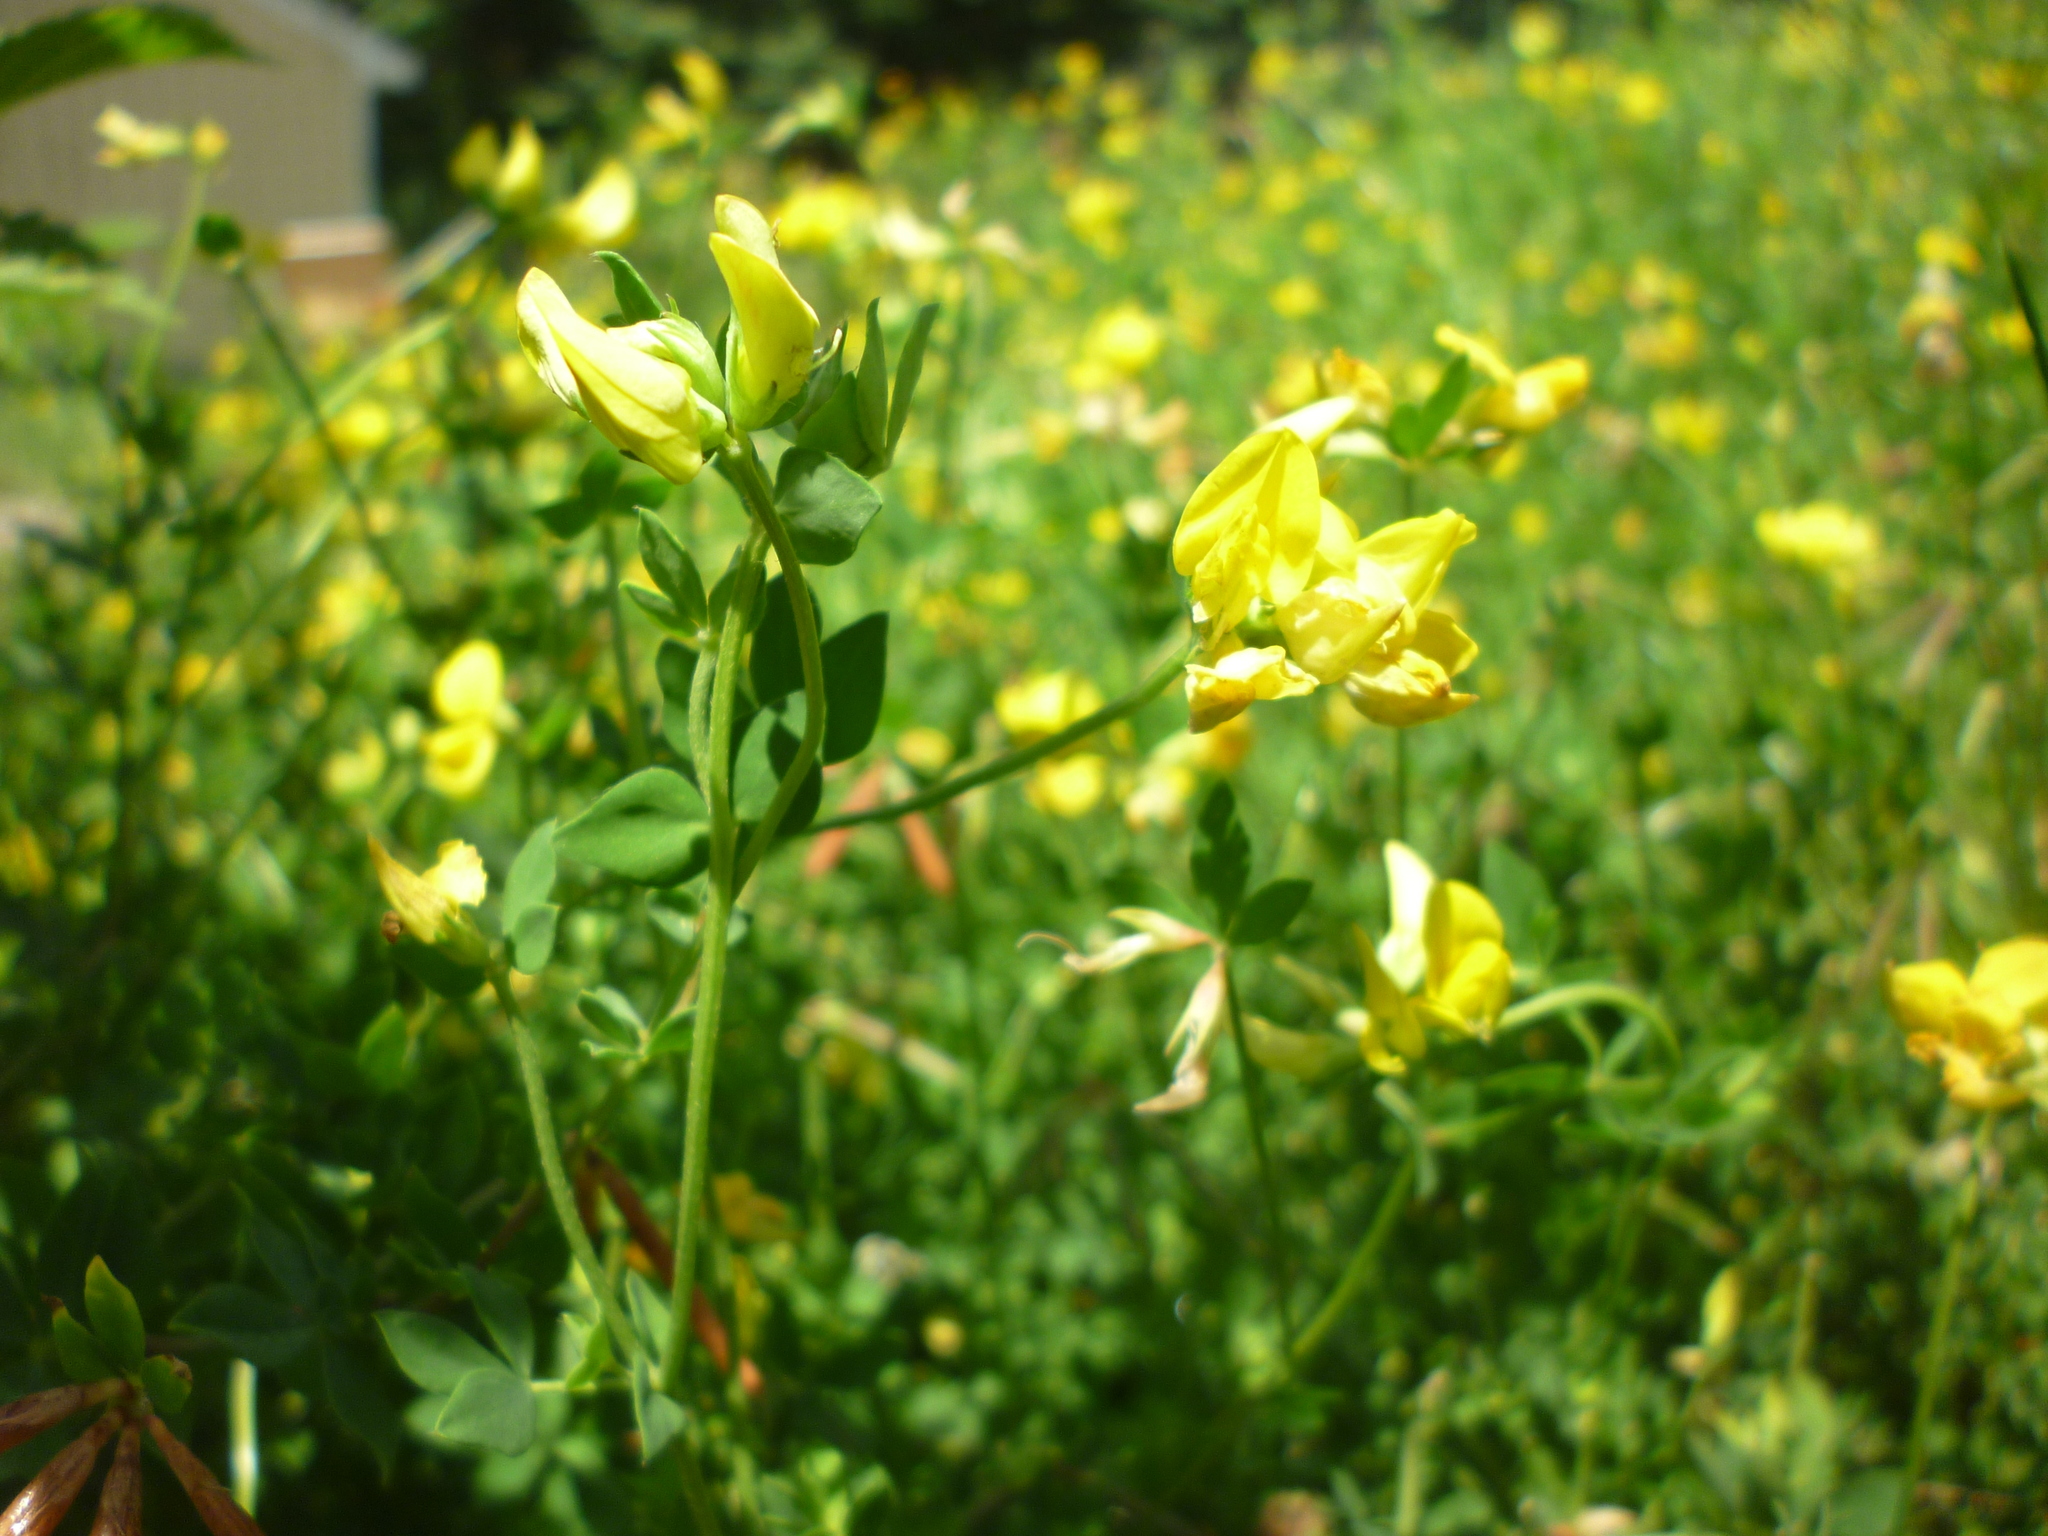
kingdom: Plantae
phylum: Tracheophyta
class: Magnoliopsida
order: Fabales
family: Fabaceae
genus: Lotus
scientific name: Lotus corniculatus
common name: Common bird's-foot-trefoil
